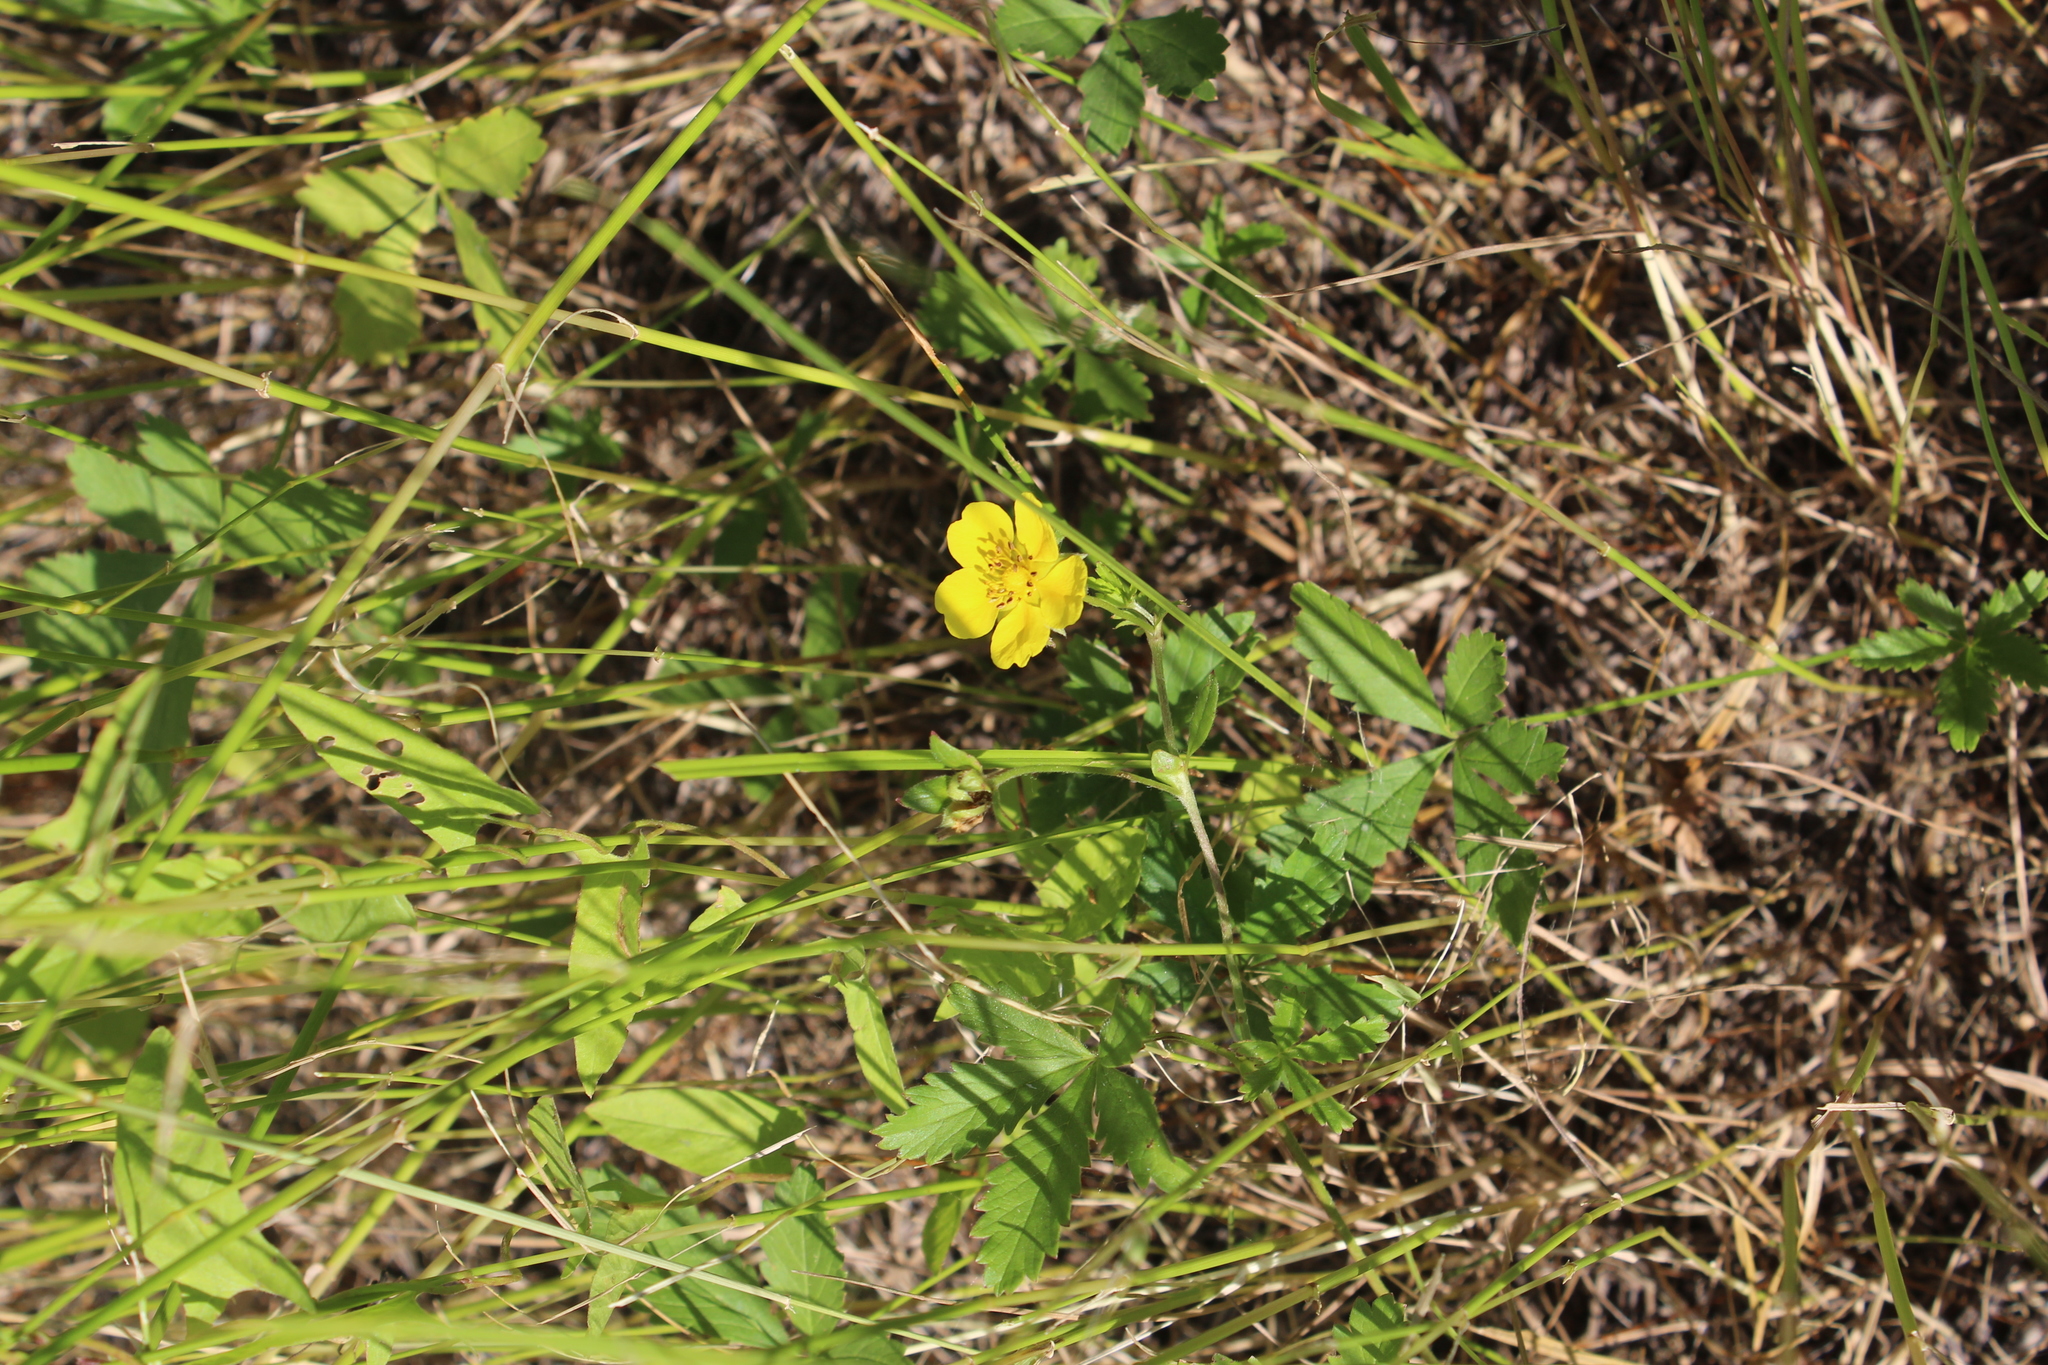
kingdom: Plantae
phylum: Tracheophyta
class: Magnoliopsida
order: Rosales
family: Rosaceae
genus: Potentilla
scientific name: Potentilla reptans
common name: Creeping cinquefoil
